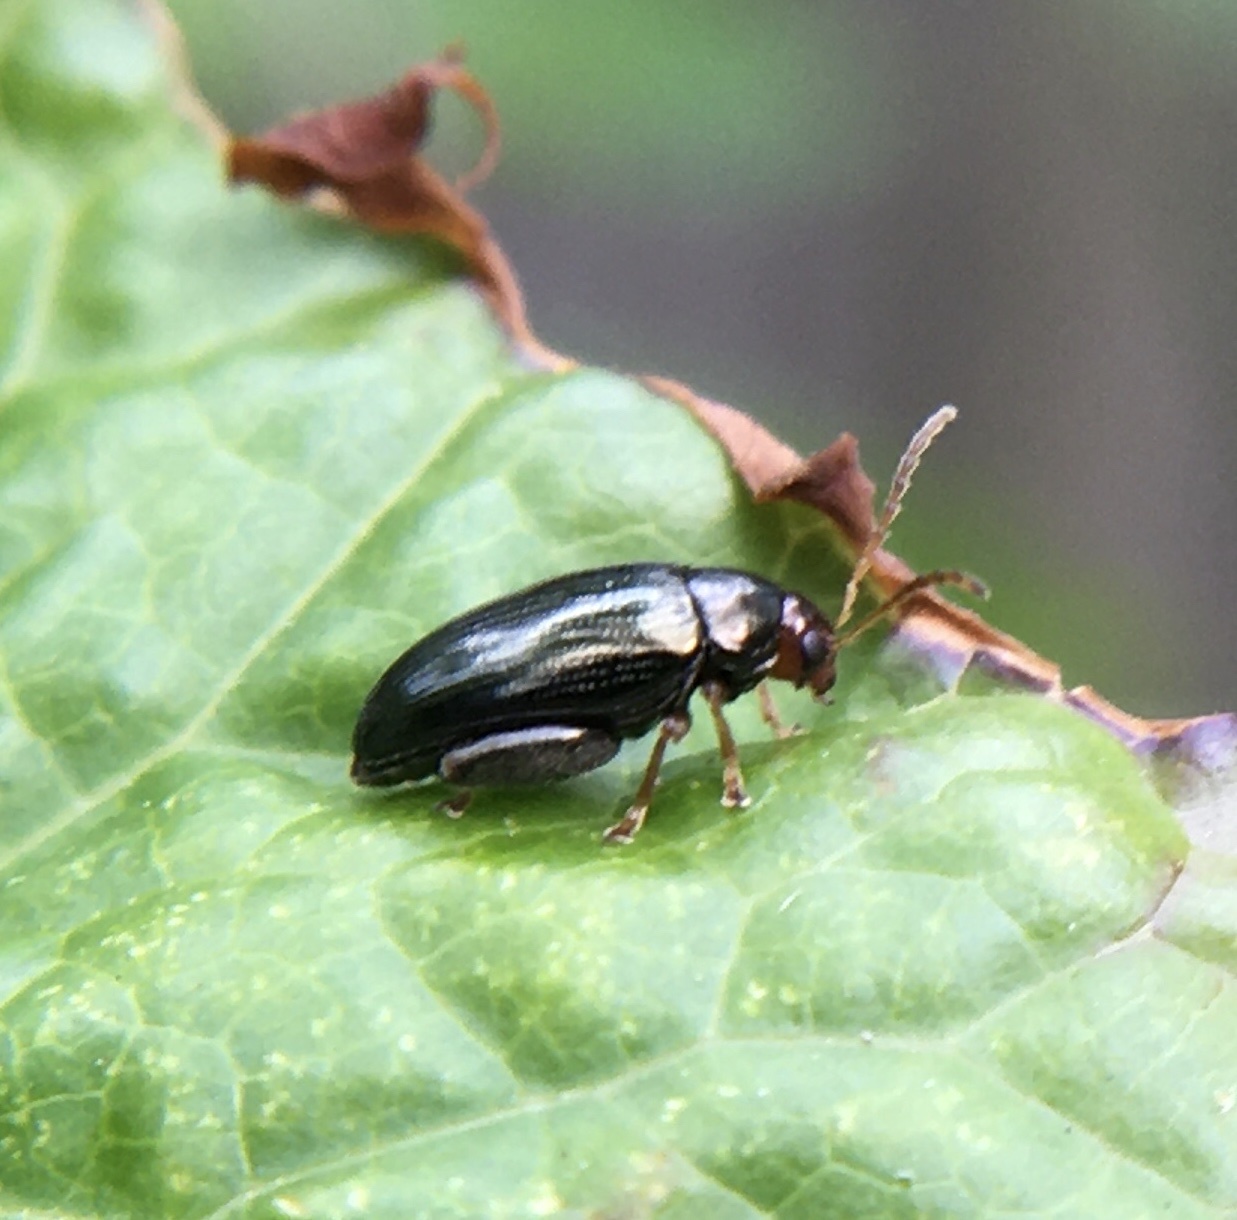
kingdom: Animalia
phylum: Arthropoda
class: Insecta
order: Coleoptera
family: Chrysomelidae
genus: Psylliodes
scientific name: Psylliodes chrysocephalus
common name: Cabbage-stem flea beetle
